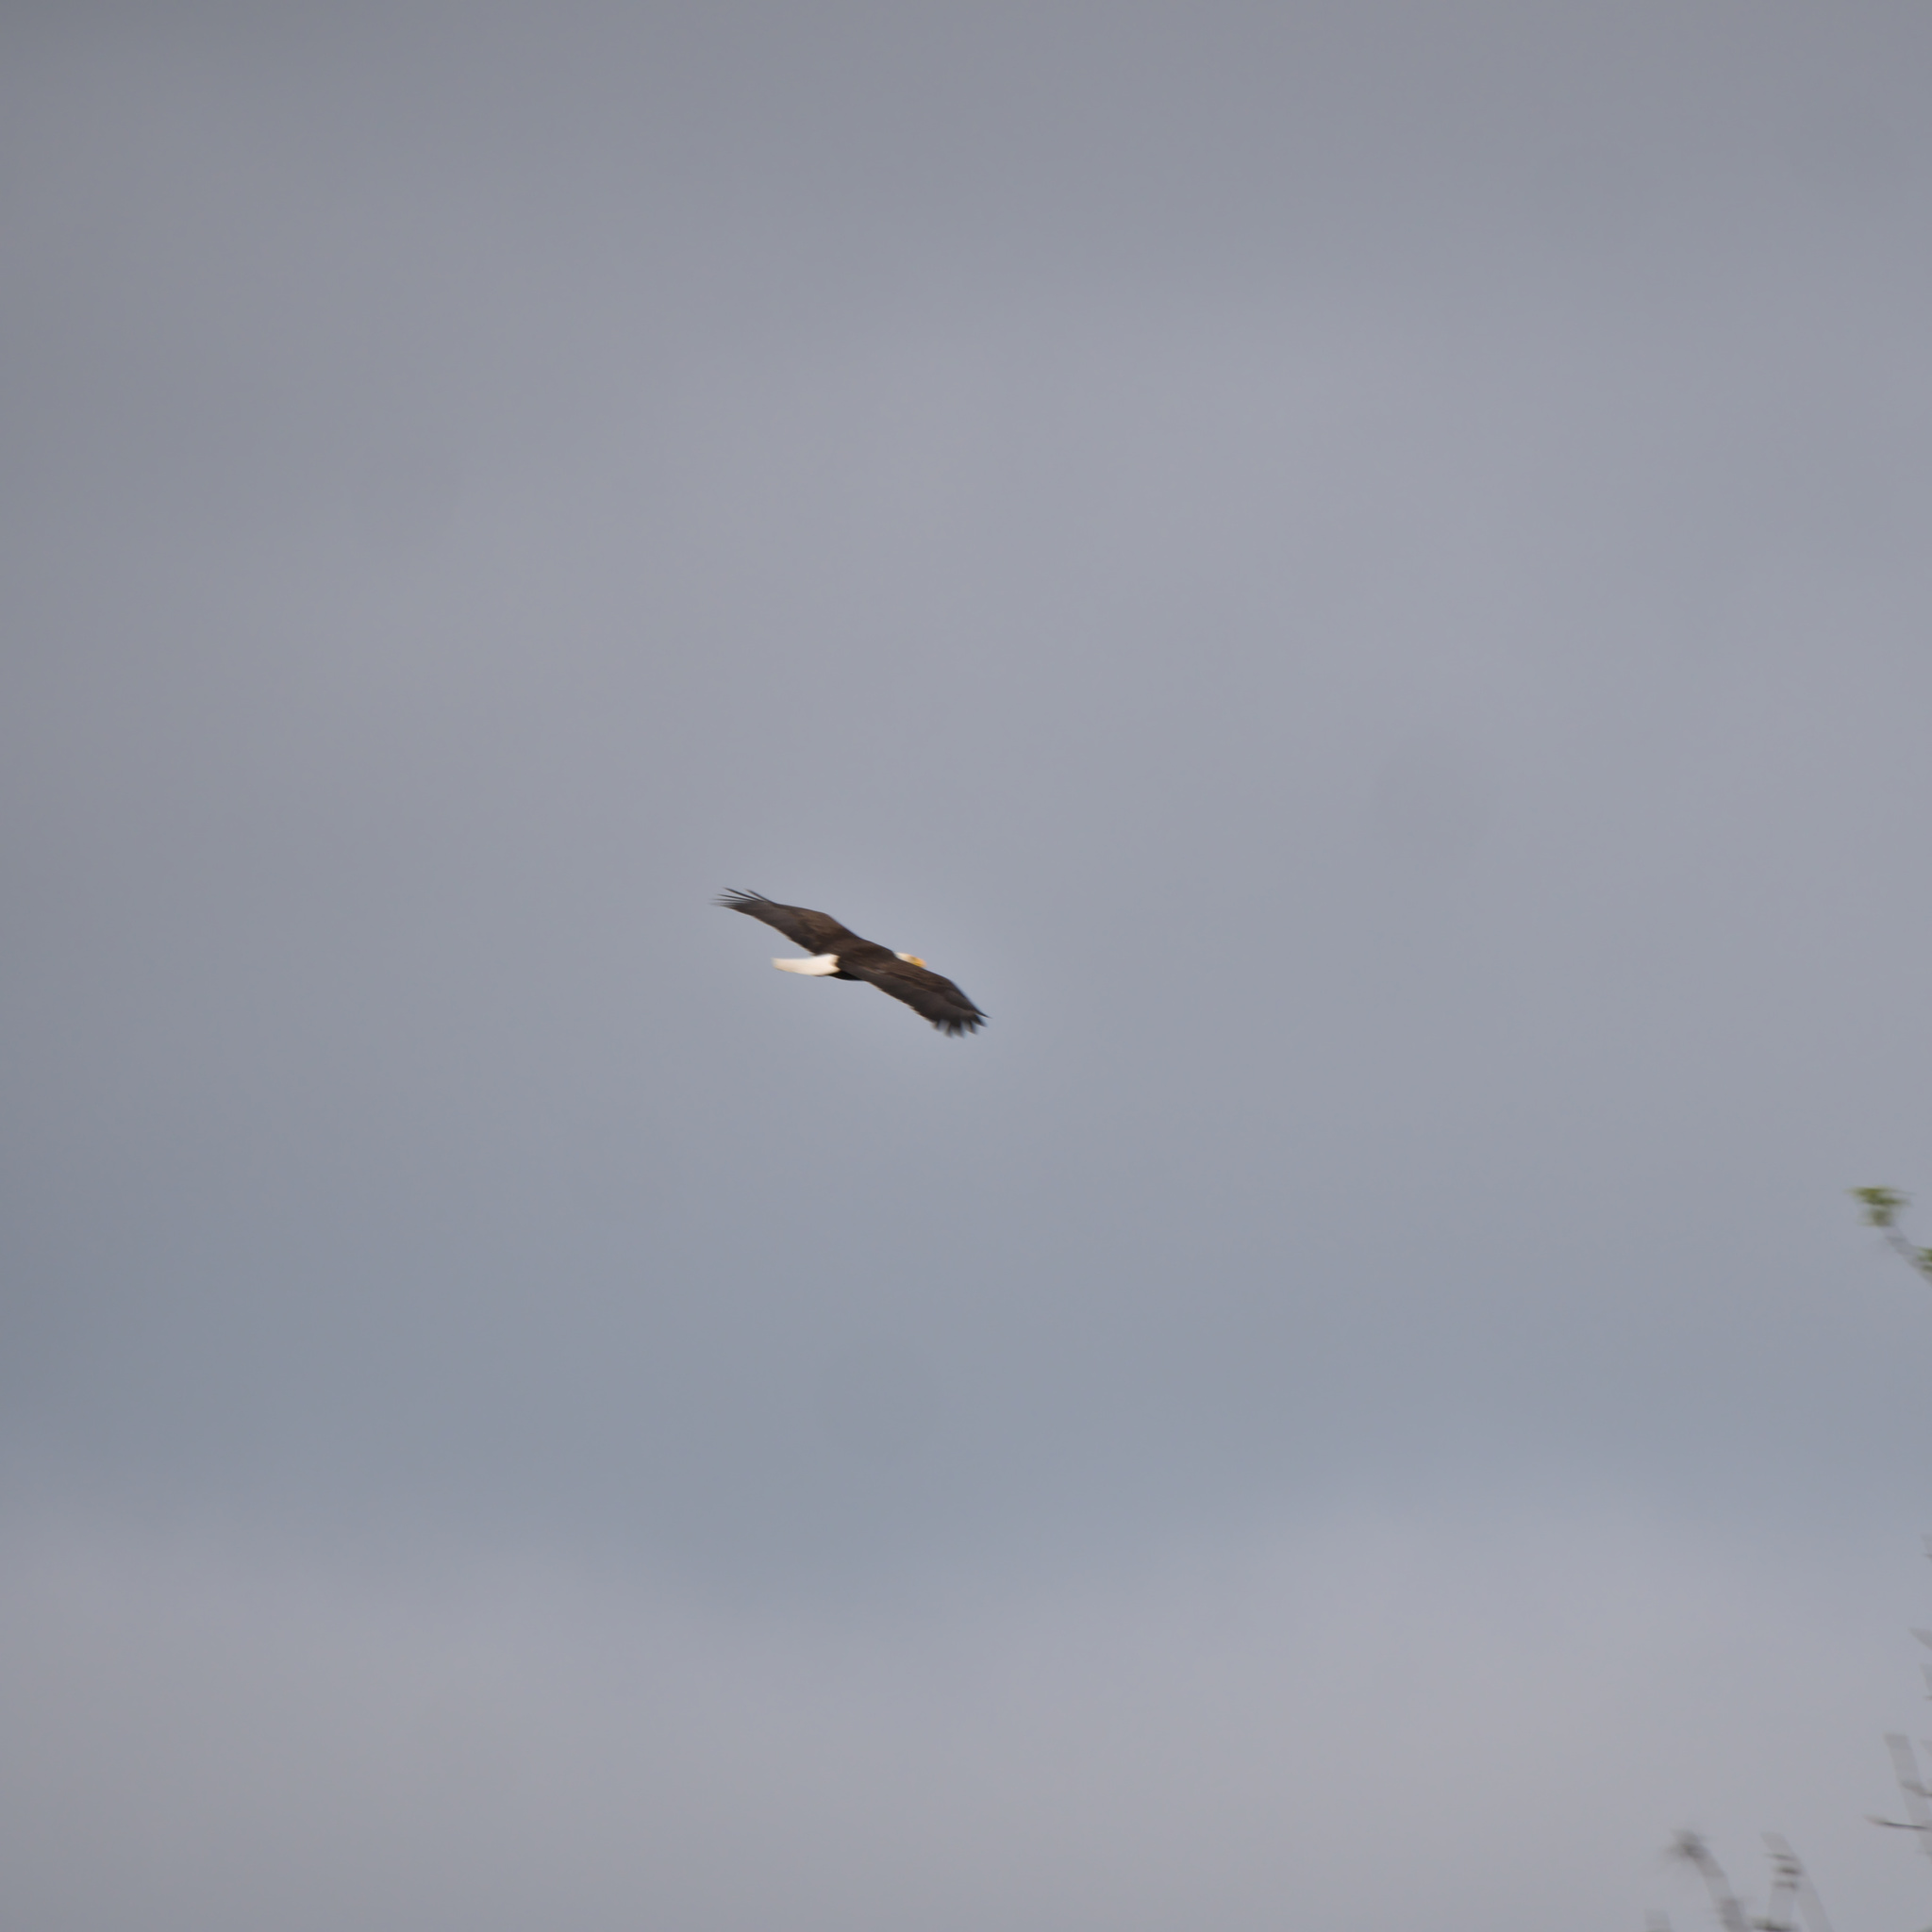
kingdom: Animalia
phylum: Chordata
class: Aves
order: Accipitriformes
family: Accipitridae
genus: Haliaeetus
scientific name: Haliaeetus leucocephalus
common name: Bald eagle
